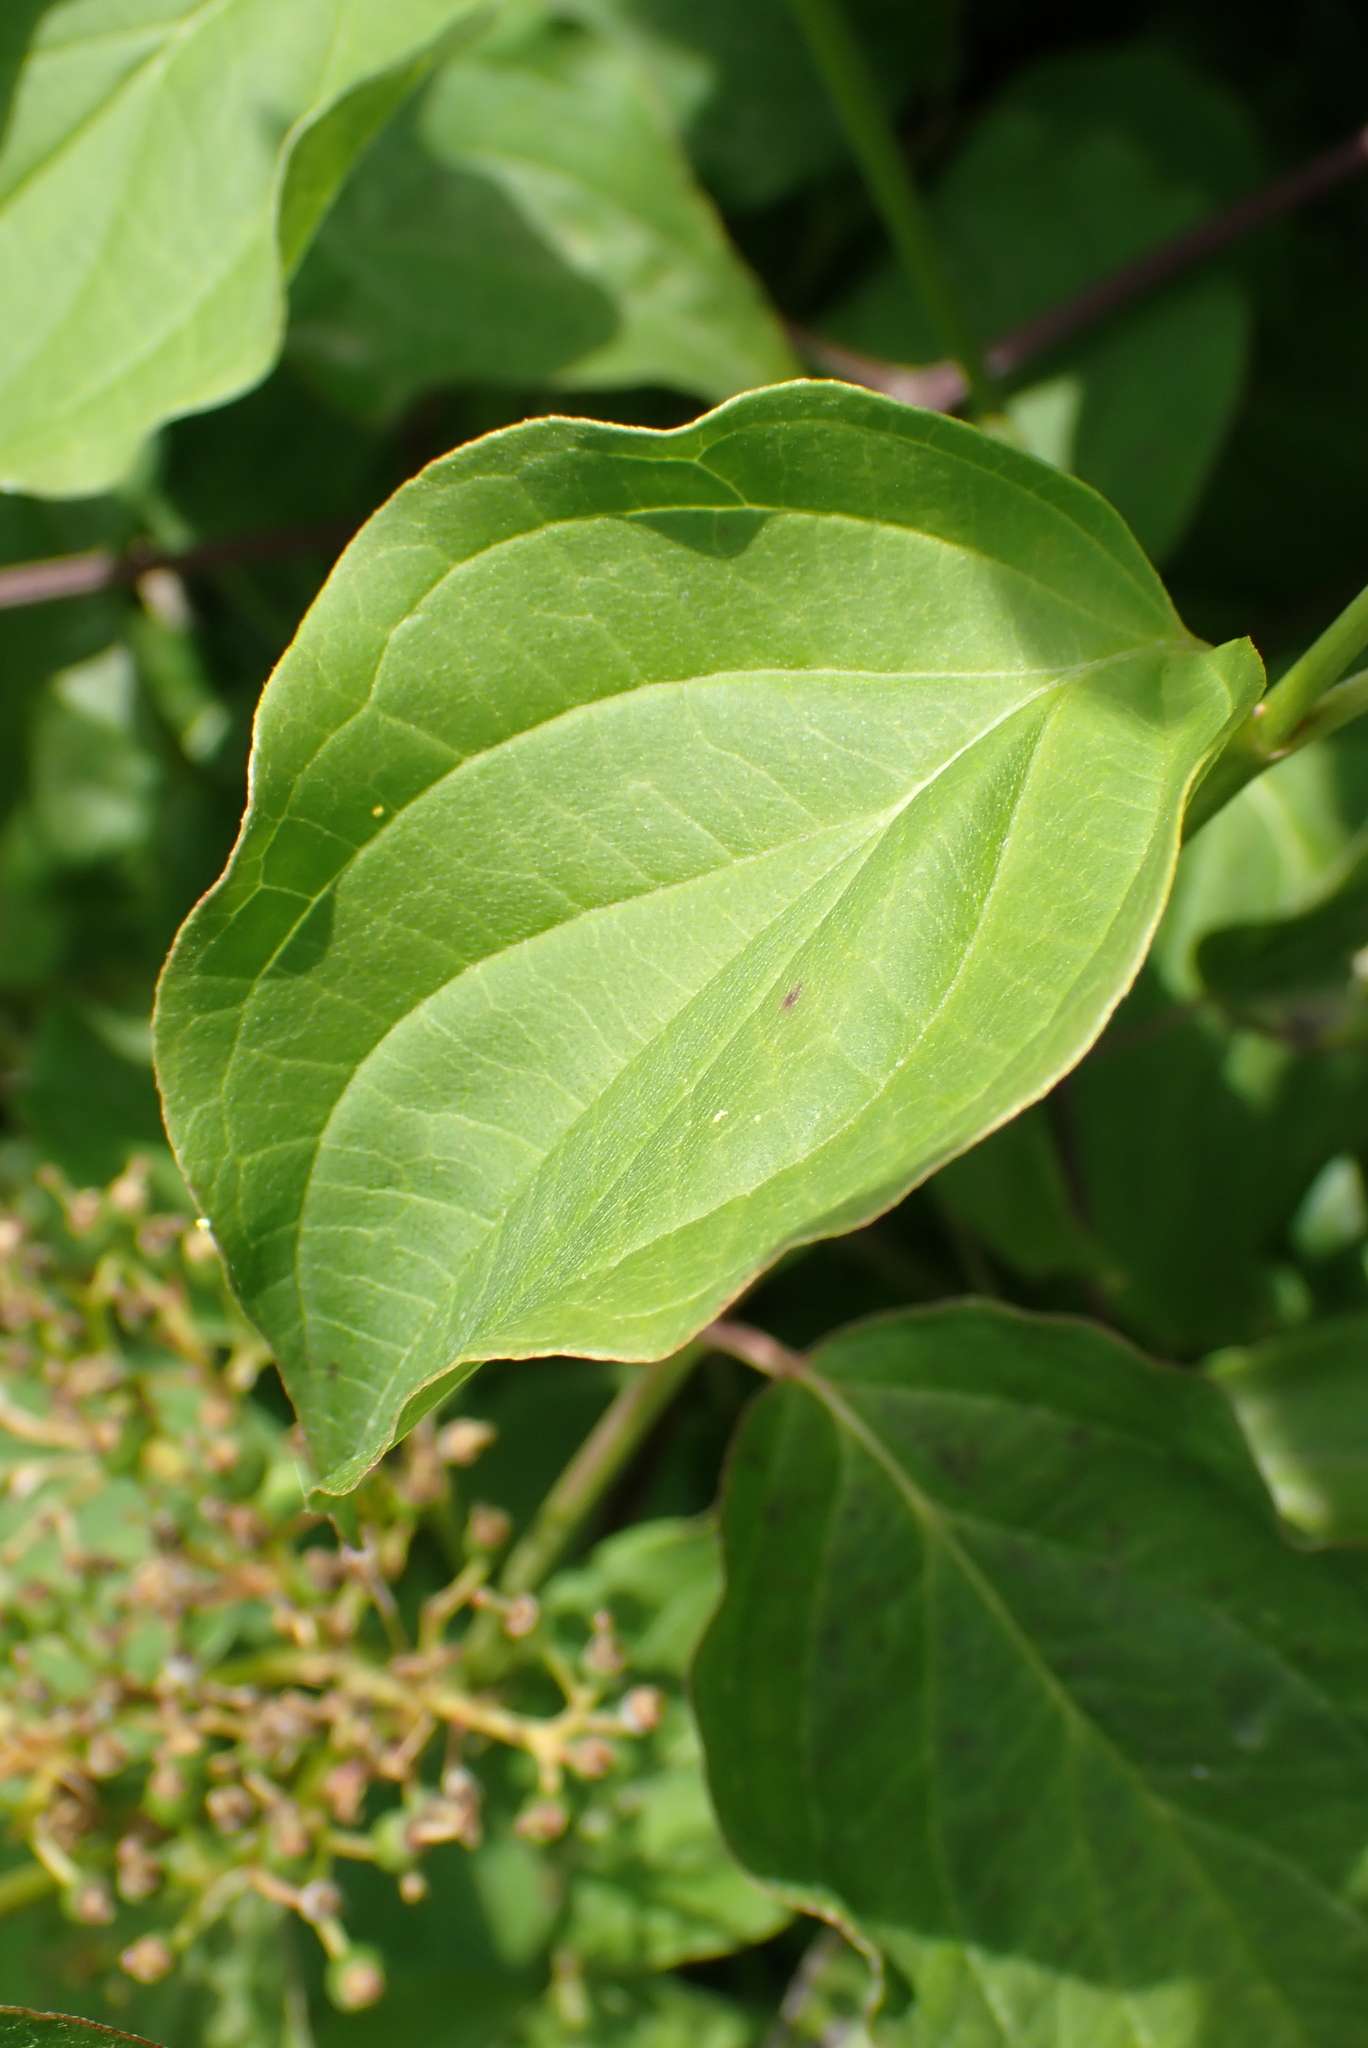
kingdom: Plantae
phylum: Tracheophyta
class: Magnoliopsida
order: Cornales
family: Cornaceae
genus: Cornus
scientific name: Cornus sanguinea
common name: Dogwood
